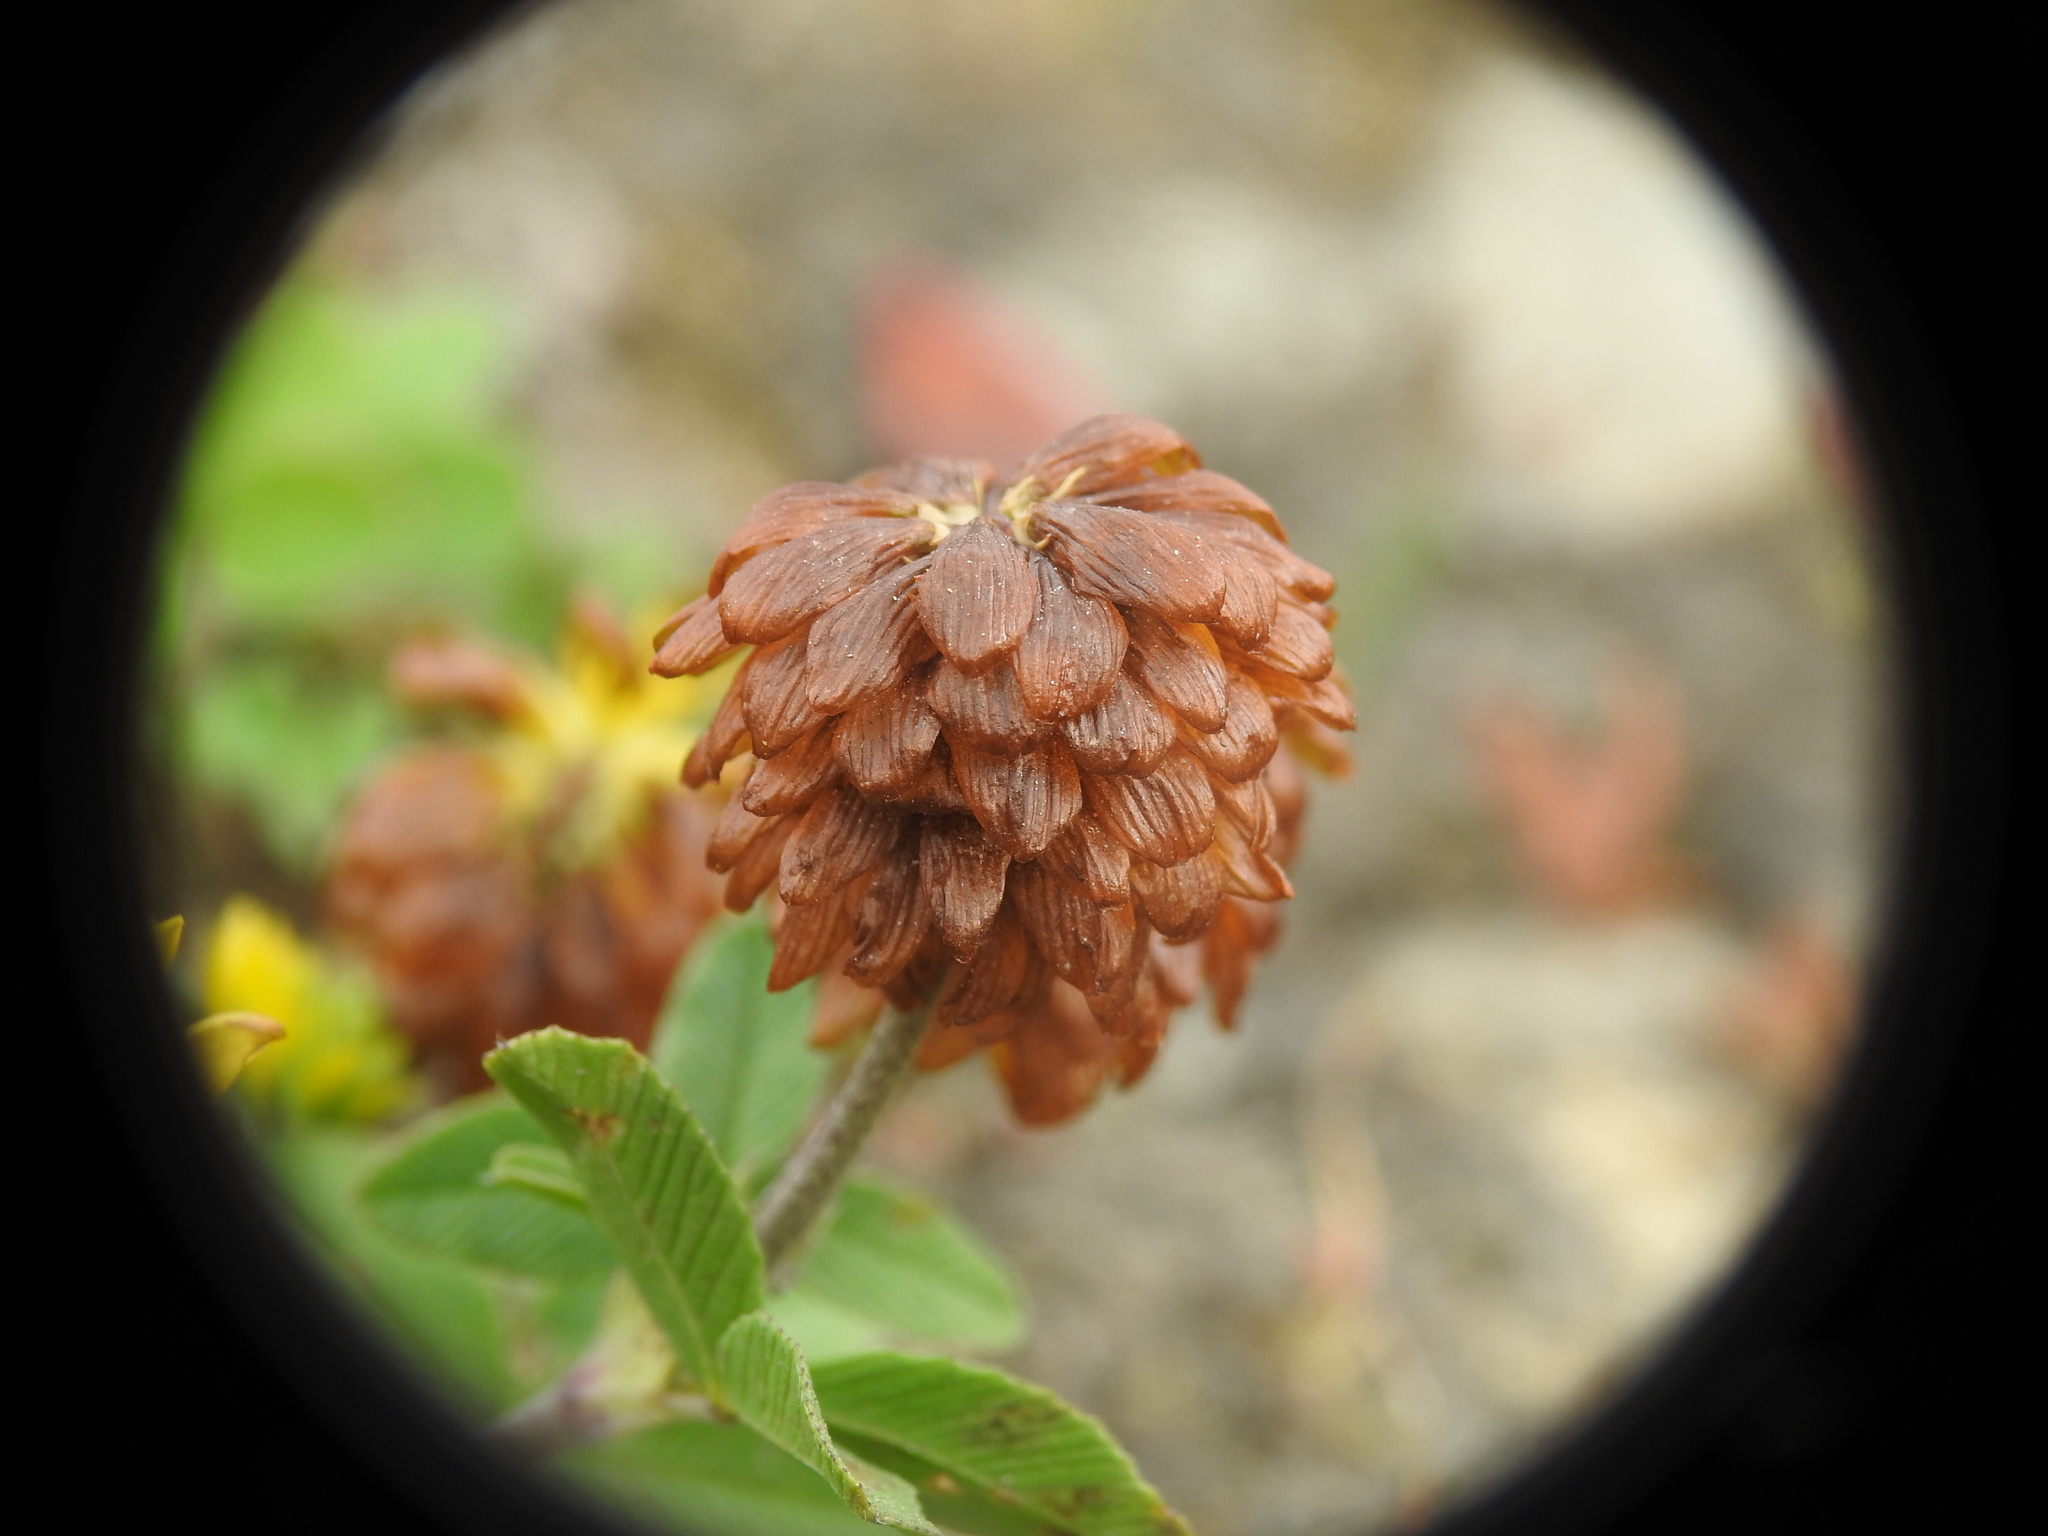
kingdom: Plantae
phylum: Tracheophyta
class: Magnoliopsida
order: Fabales
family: Fabaceae
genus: Trifolium
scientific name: Trifolium badium
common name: Brown clover
